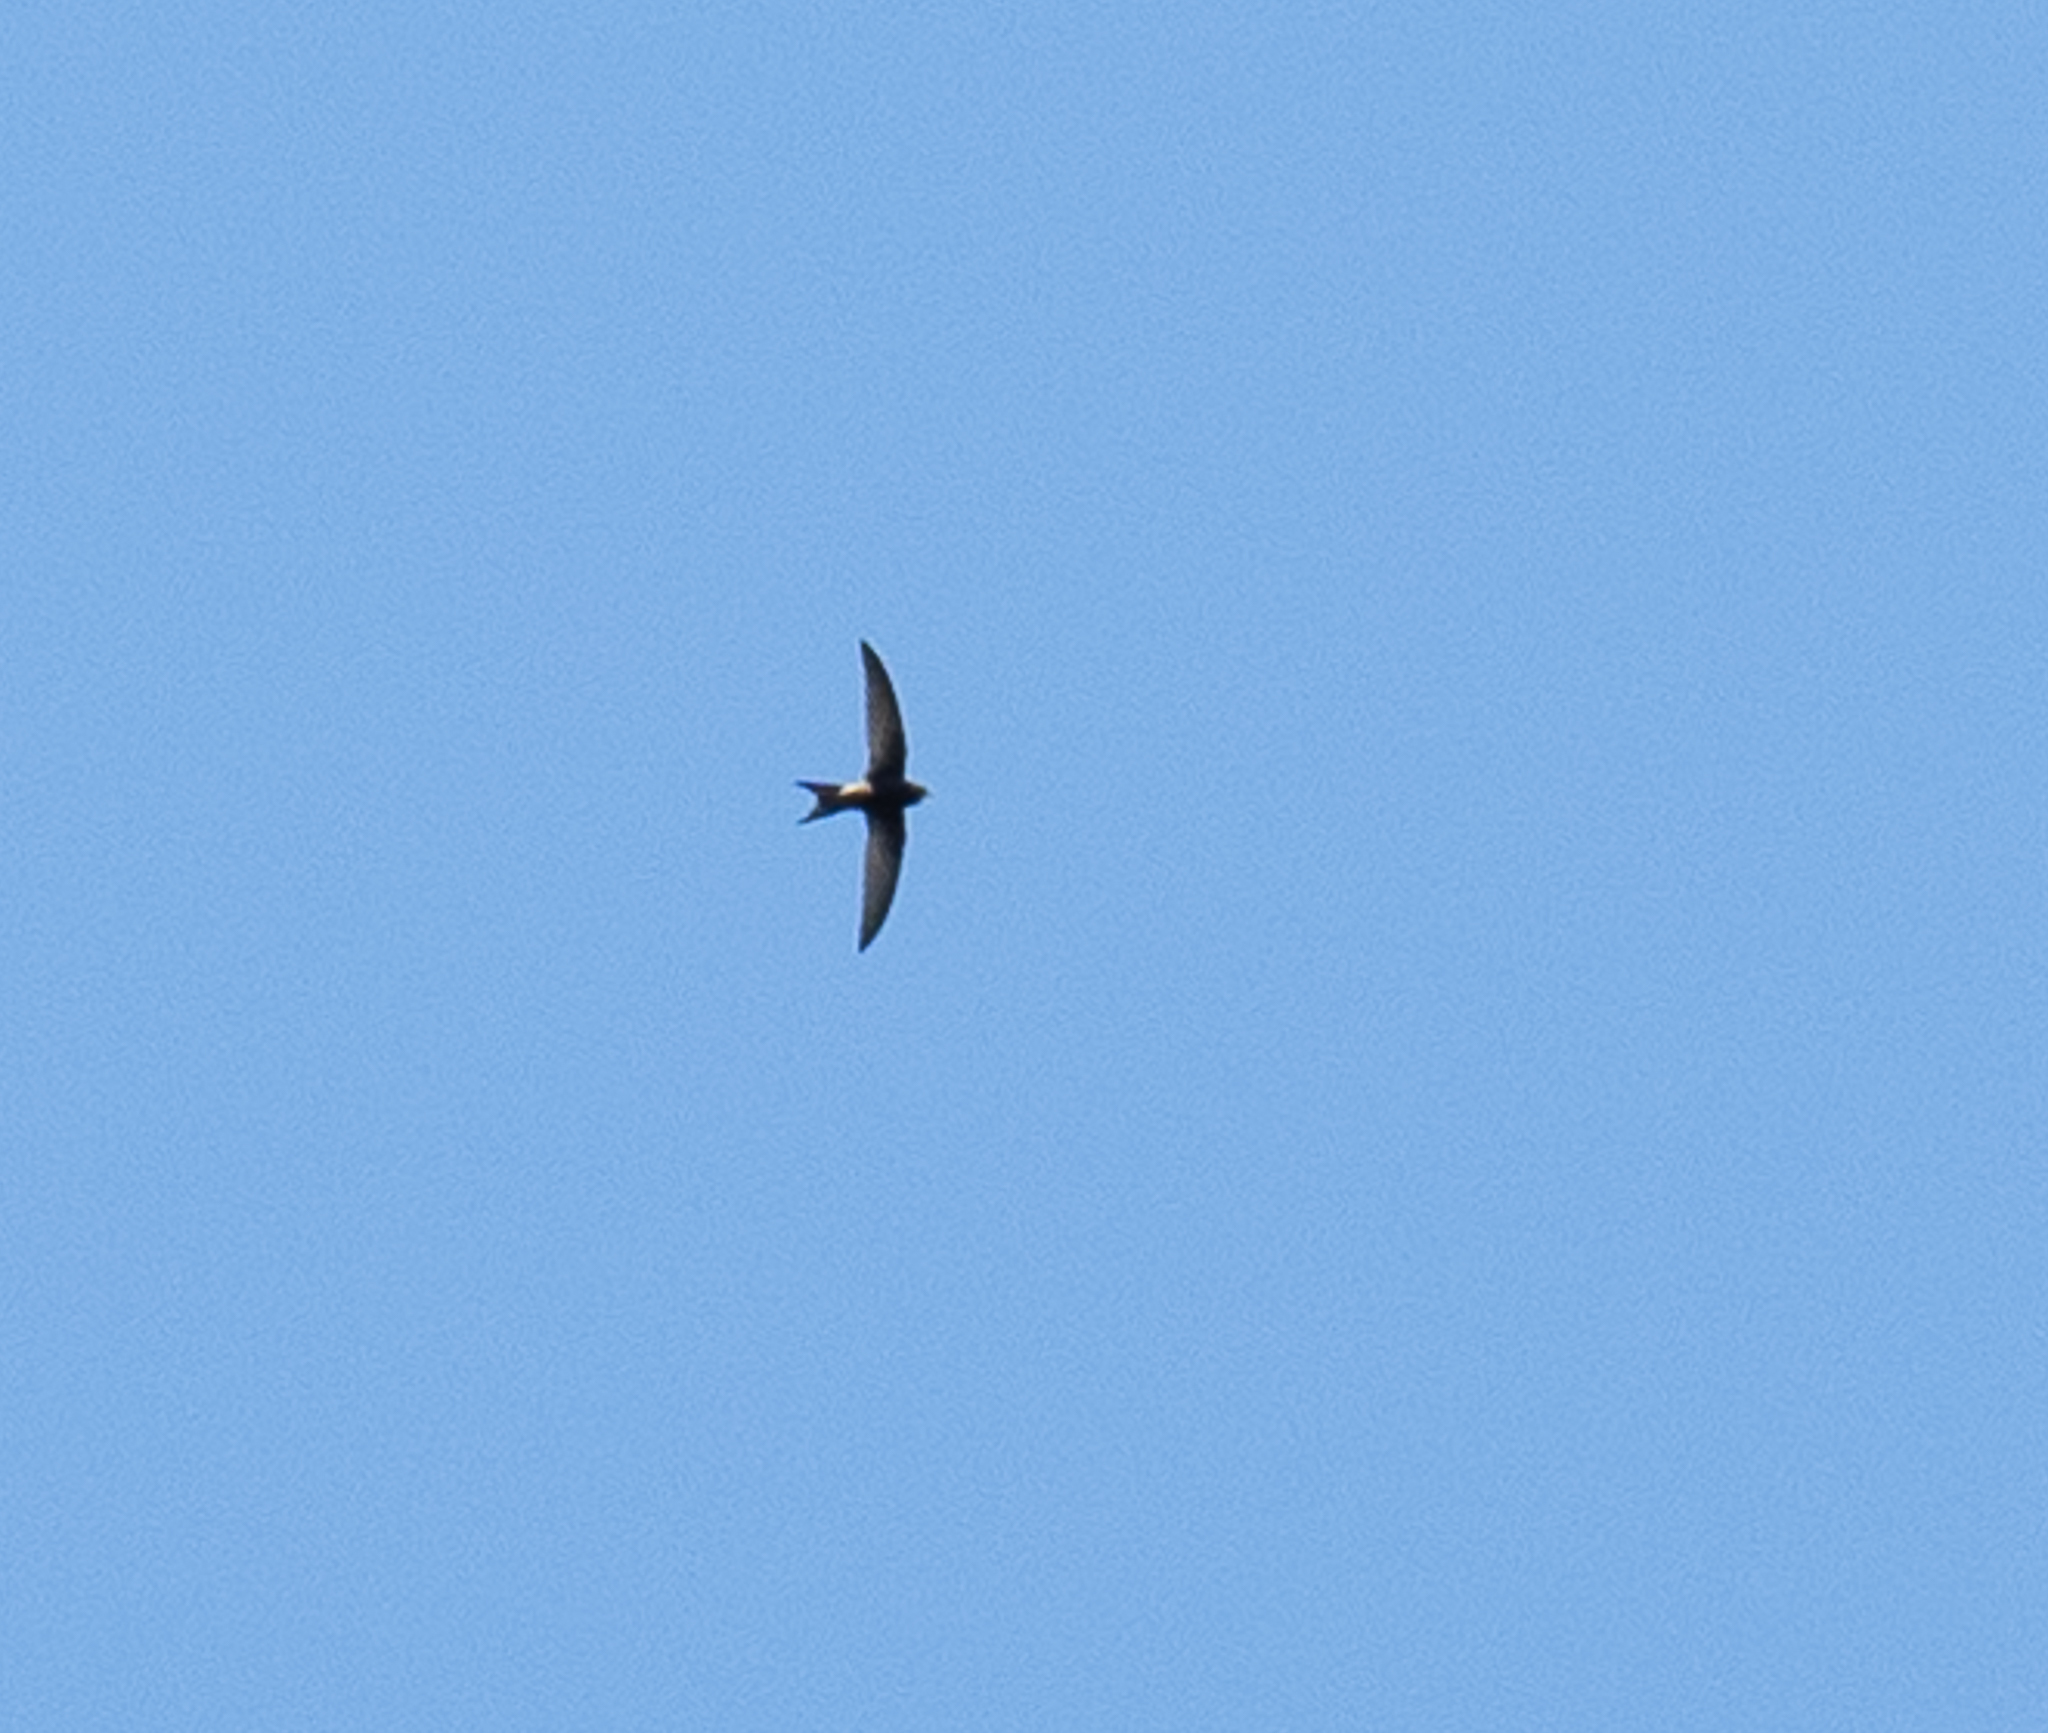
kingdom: Animalia
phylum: Chordata
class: Aves
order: Apodiformes
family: Apodidae
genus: Apus
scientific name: Apus apus
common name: Common swift
